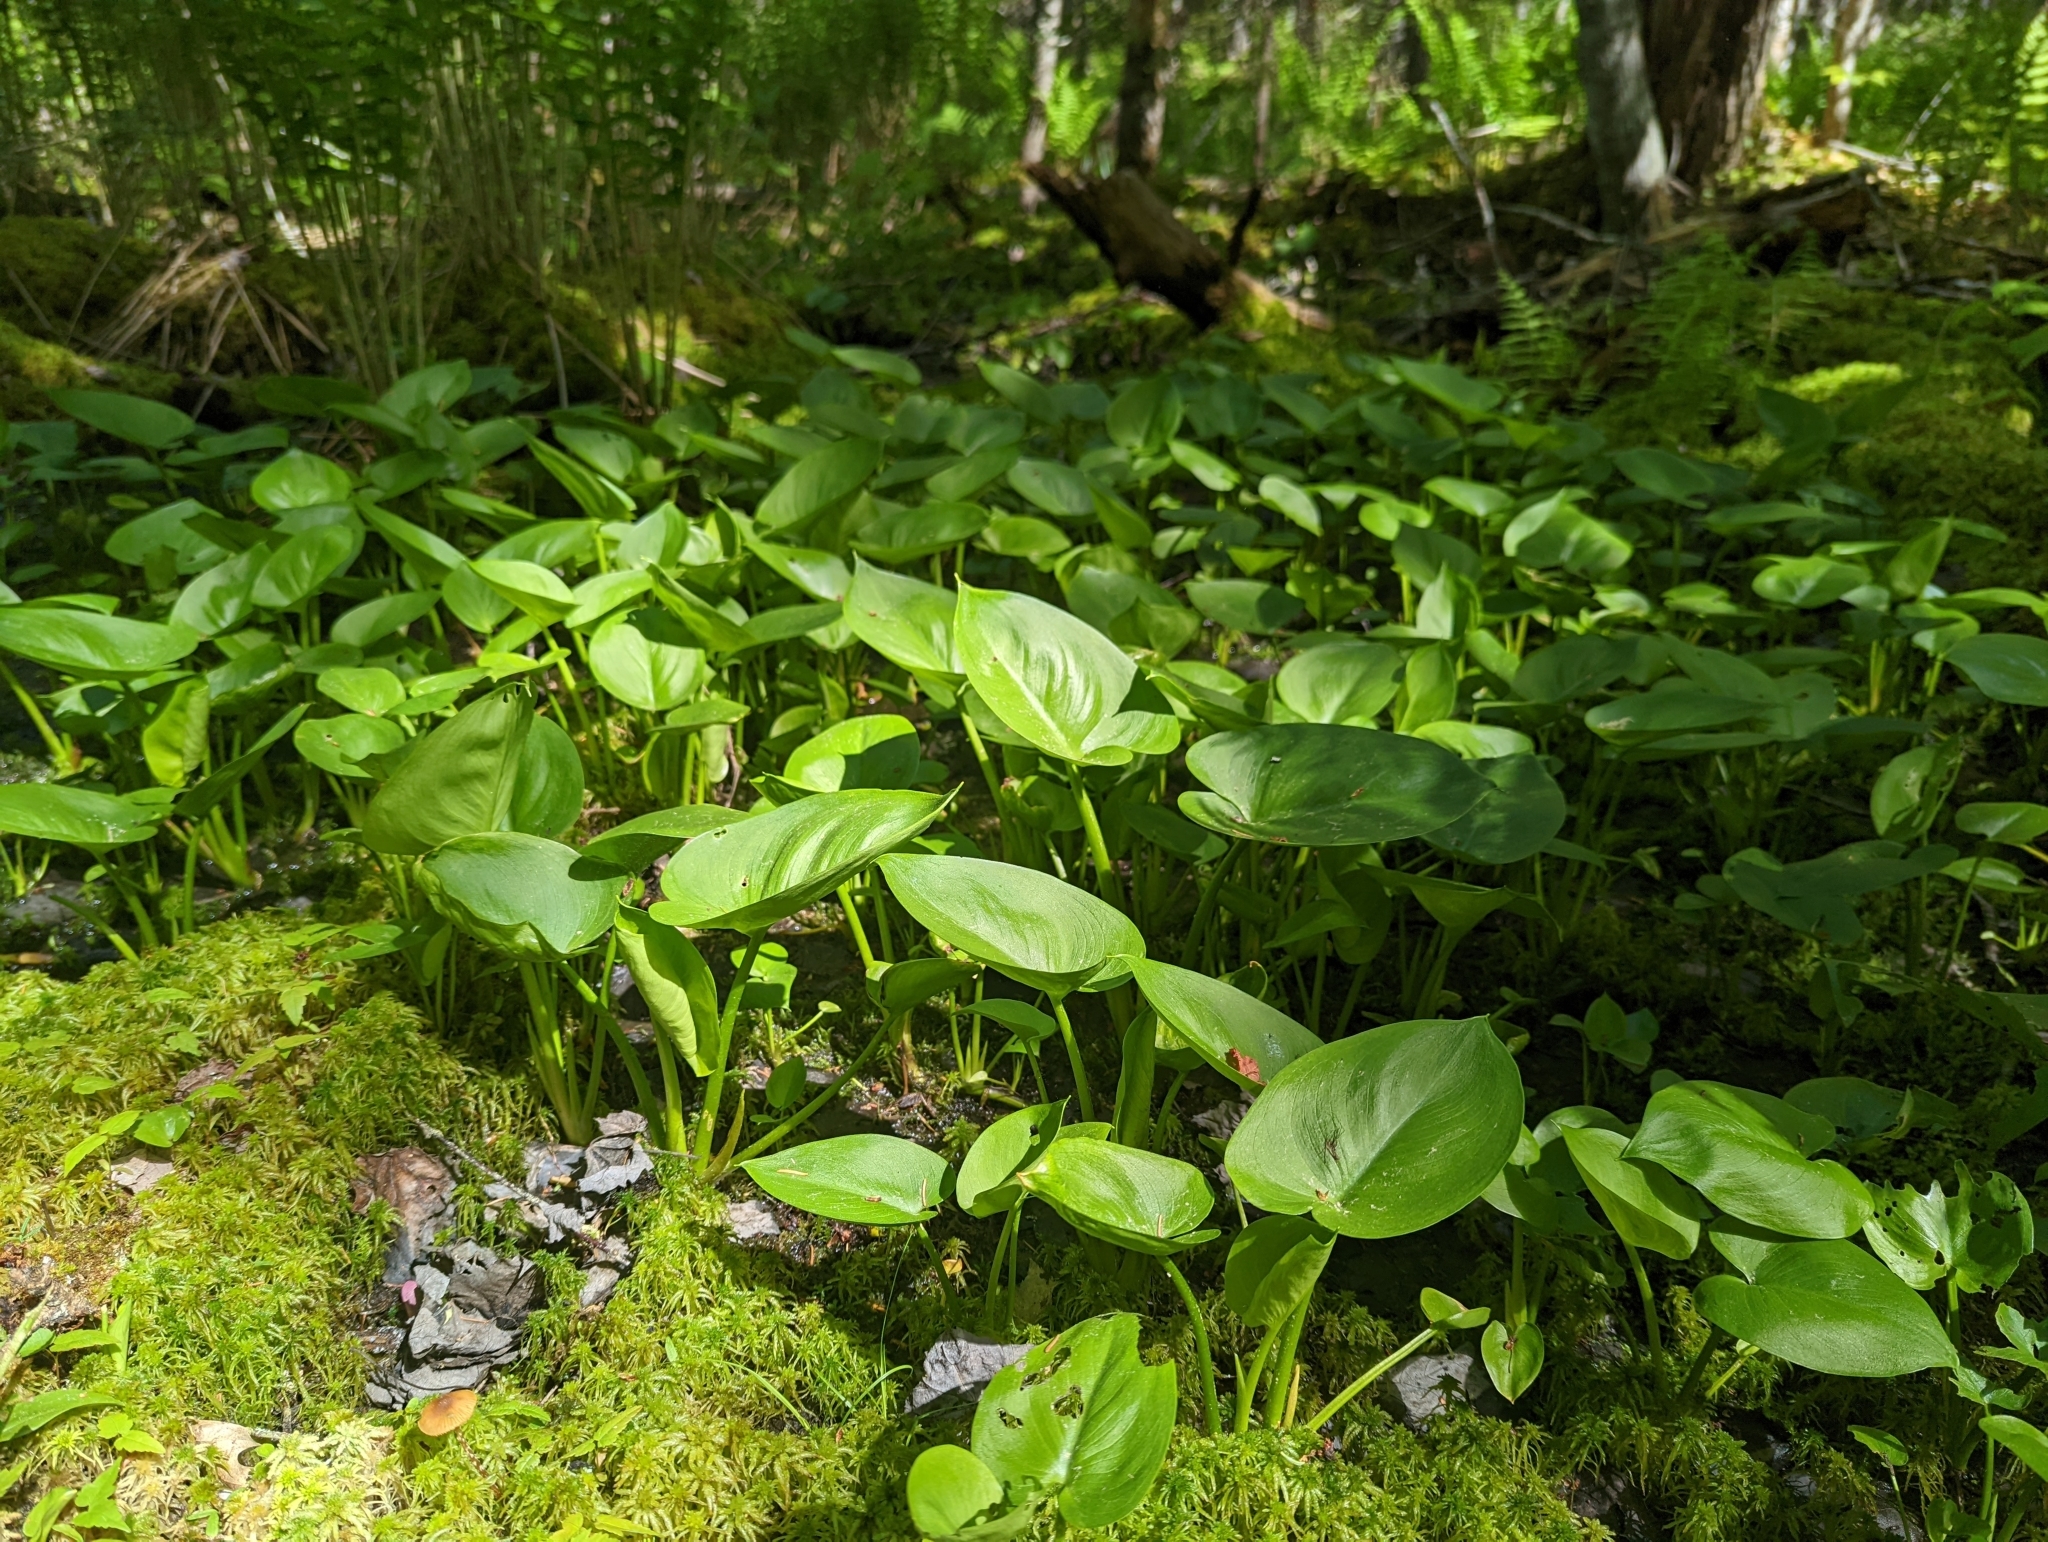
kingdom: Plantae
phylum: Tracheophyta
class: Liliopsida
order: Alismatales
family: Araceae
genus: Calla
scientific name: Calla palustris
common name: Bog arum
